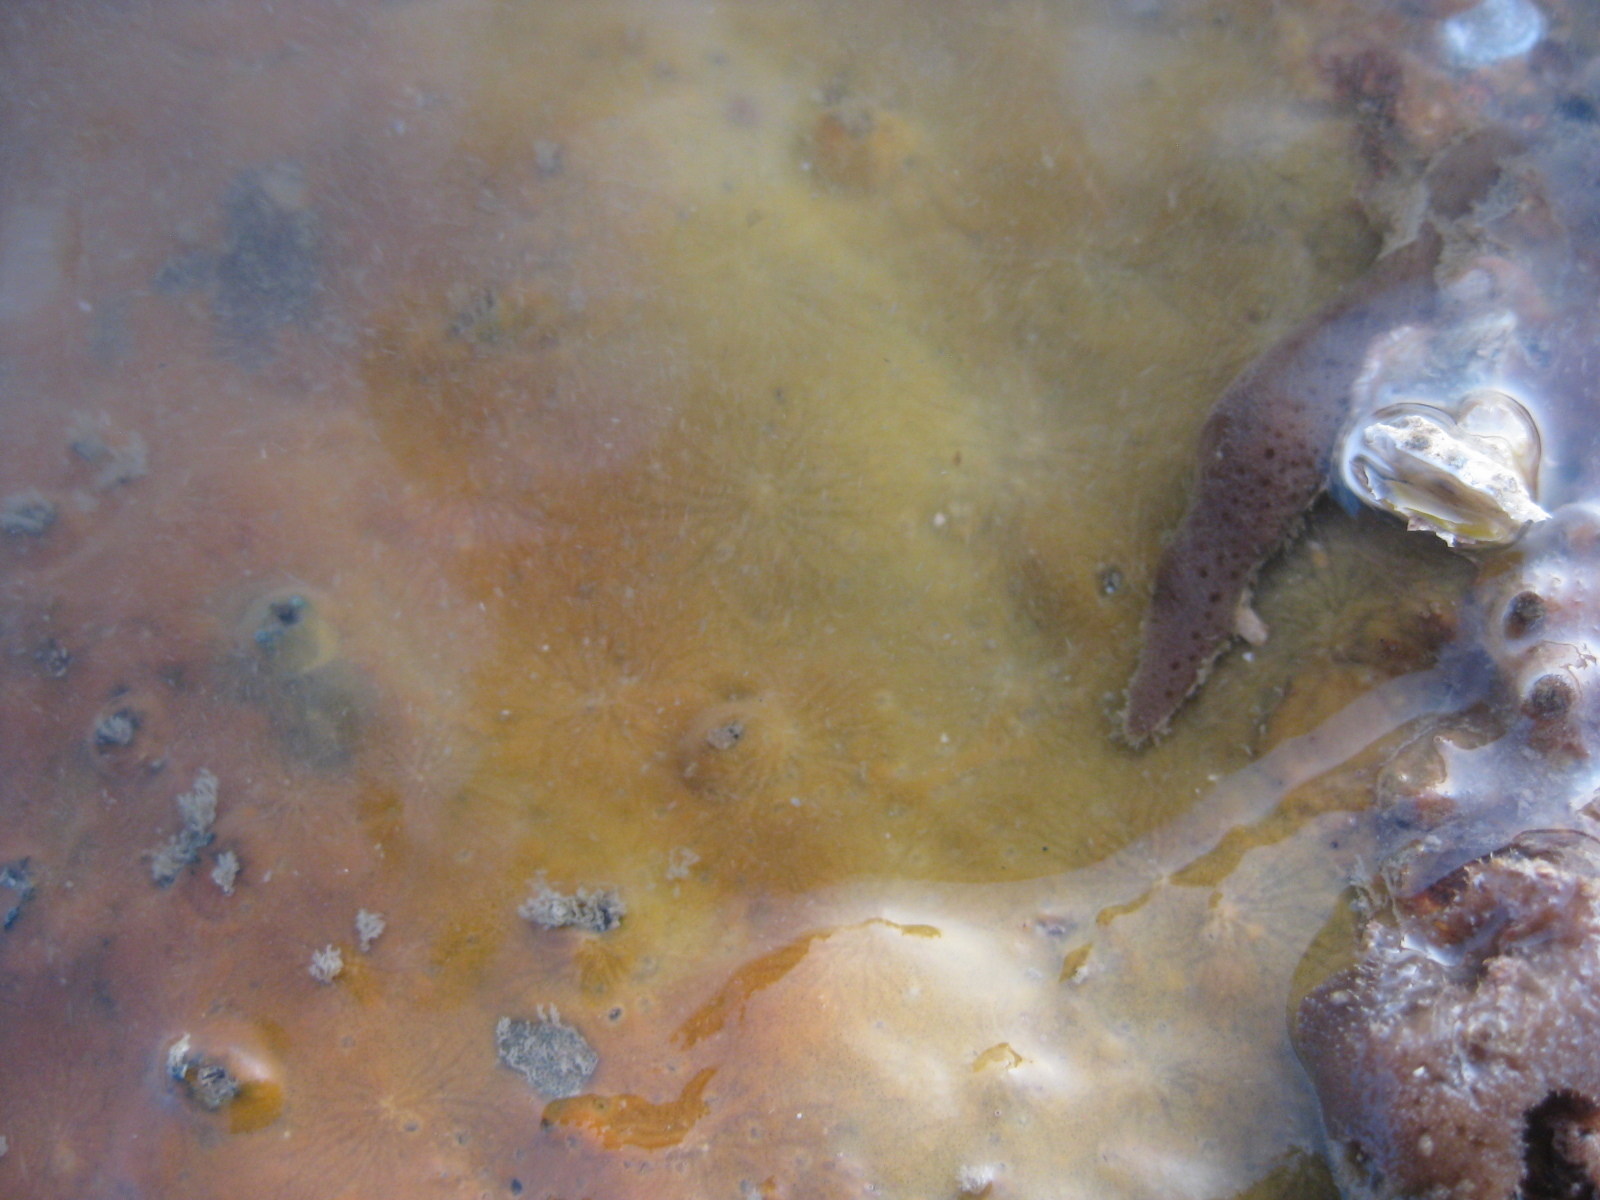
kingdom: Animalia
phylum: Porifera
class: Demospongiae
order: Tethyida
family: Timeidae
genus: Timea
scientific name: Timea aurantiaca
